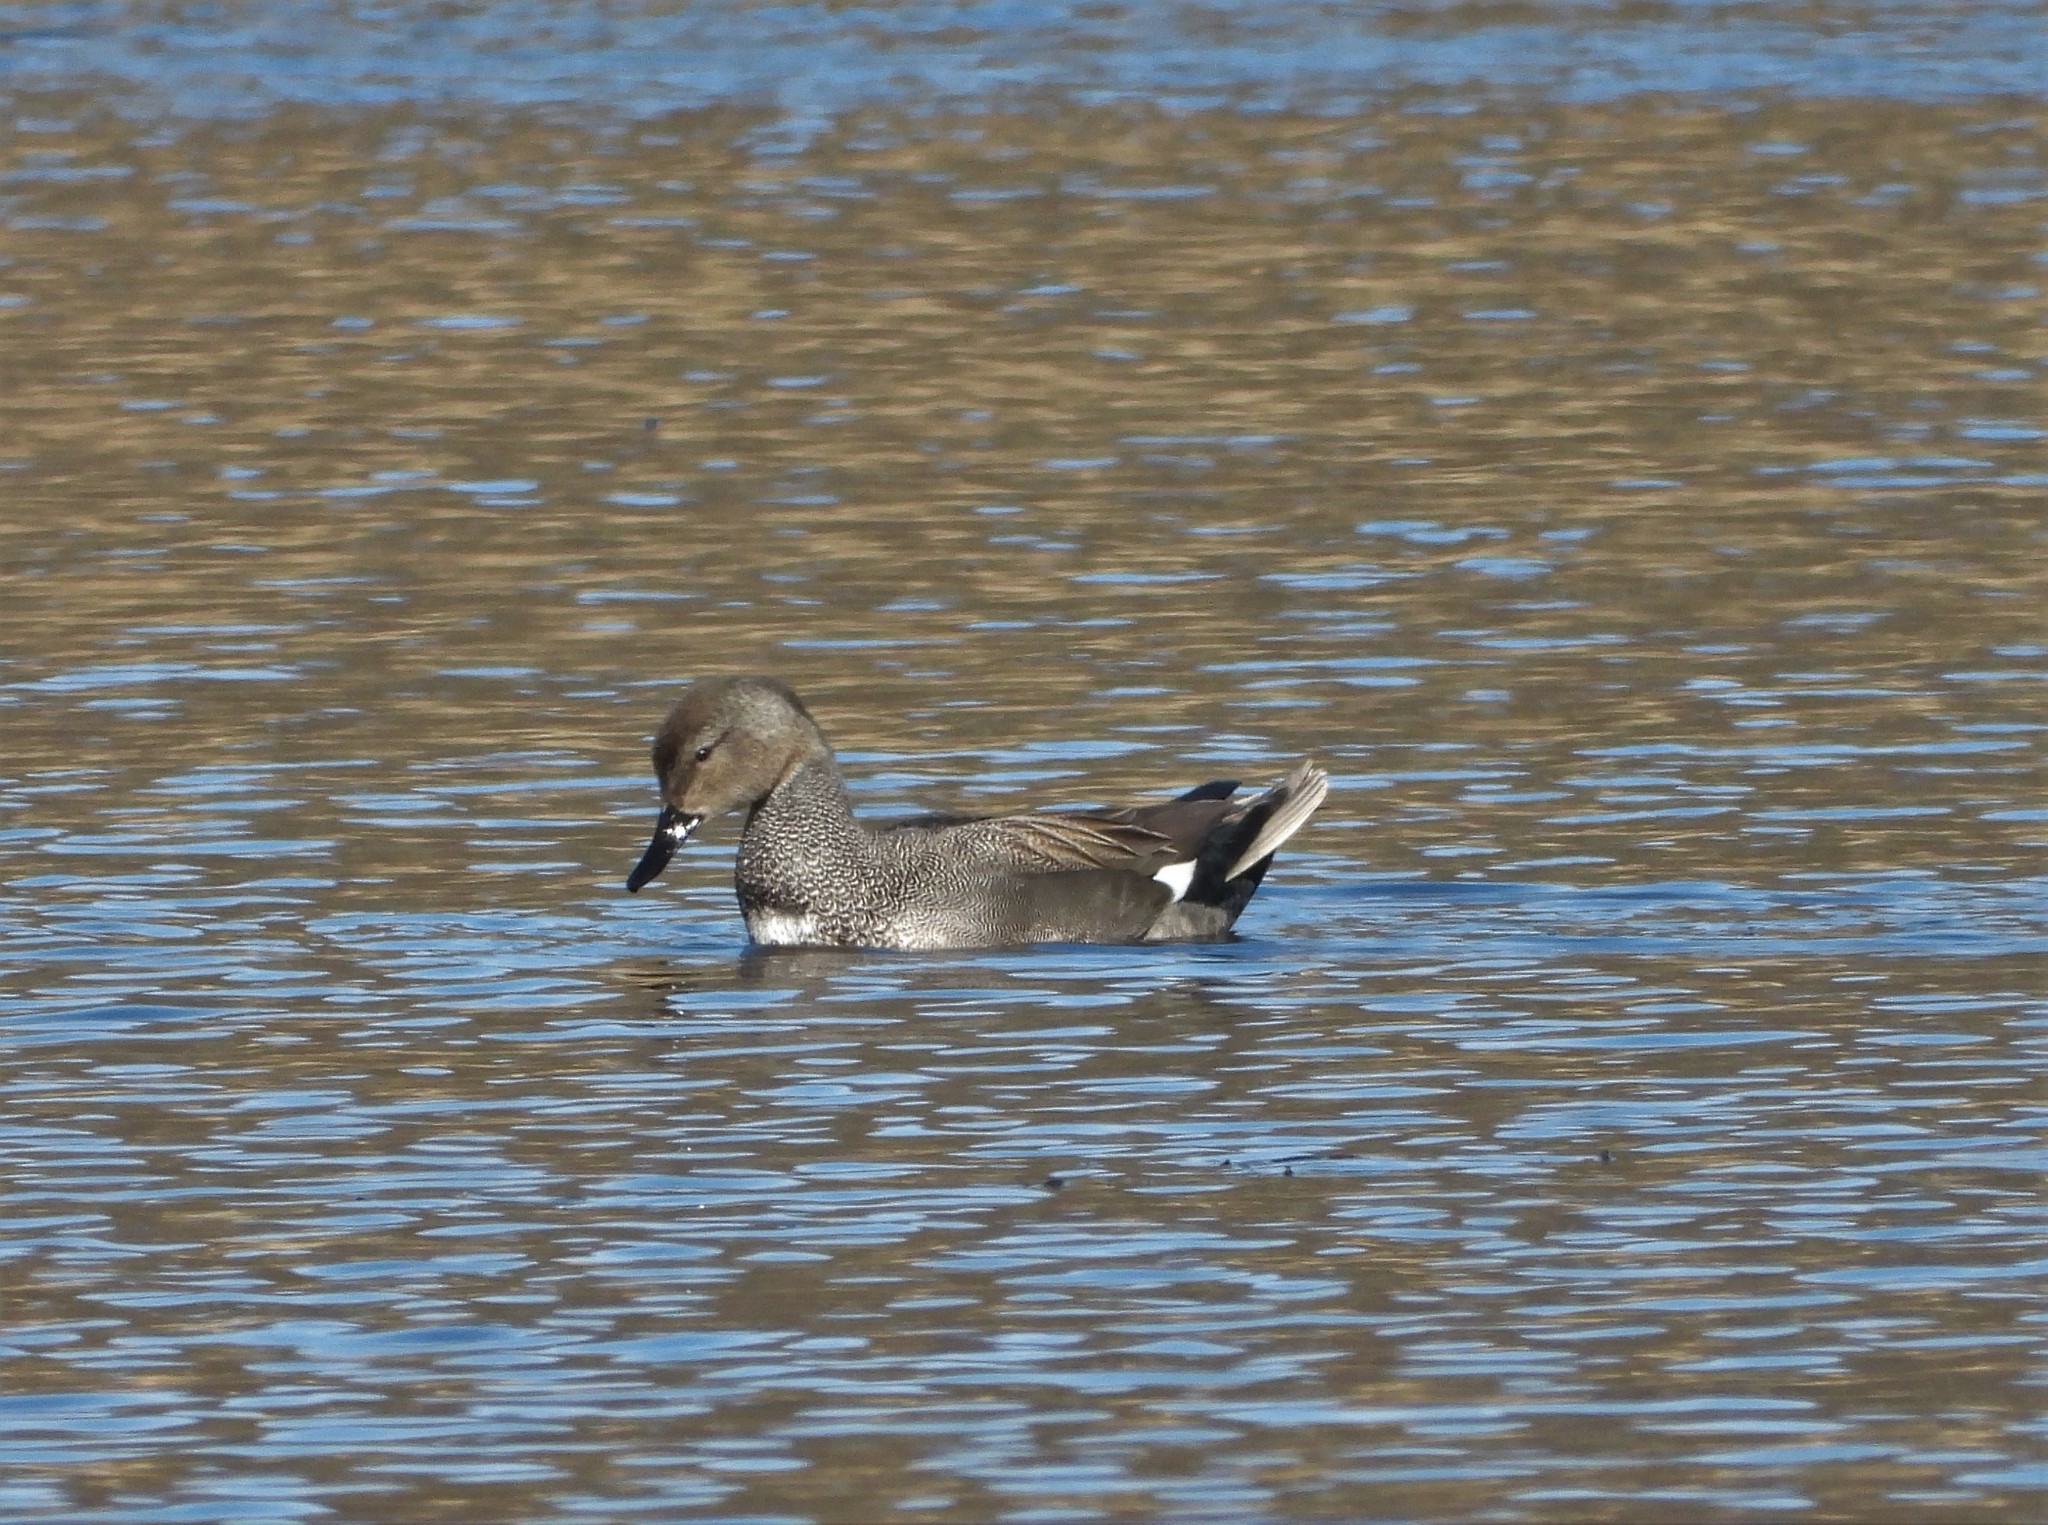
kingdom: Animalia
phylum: Chordata
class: Aves
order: Anseriformes
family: Anatidae
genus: Mareca
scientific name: Mareca strepera
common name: Gadwall
